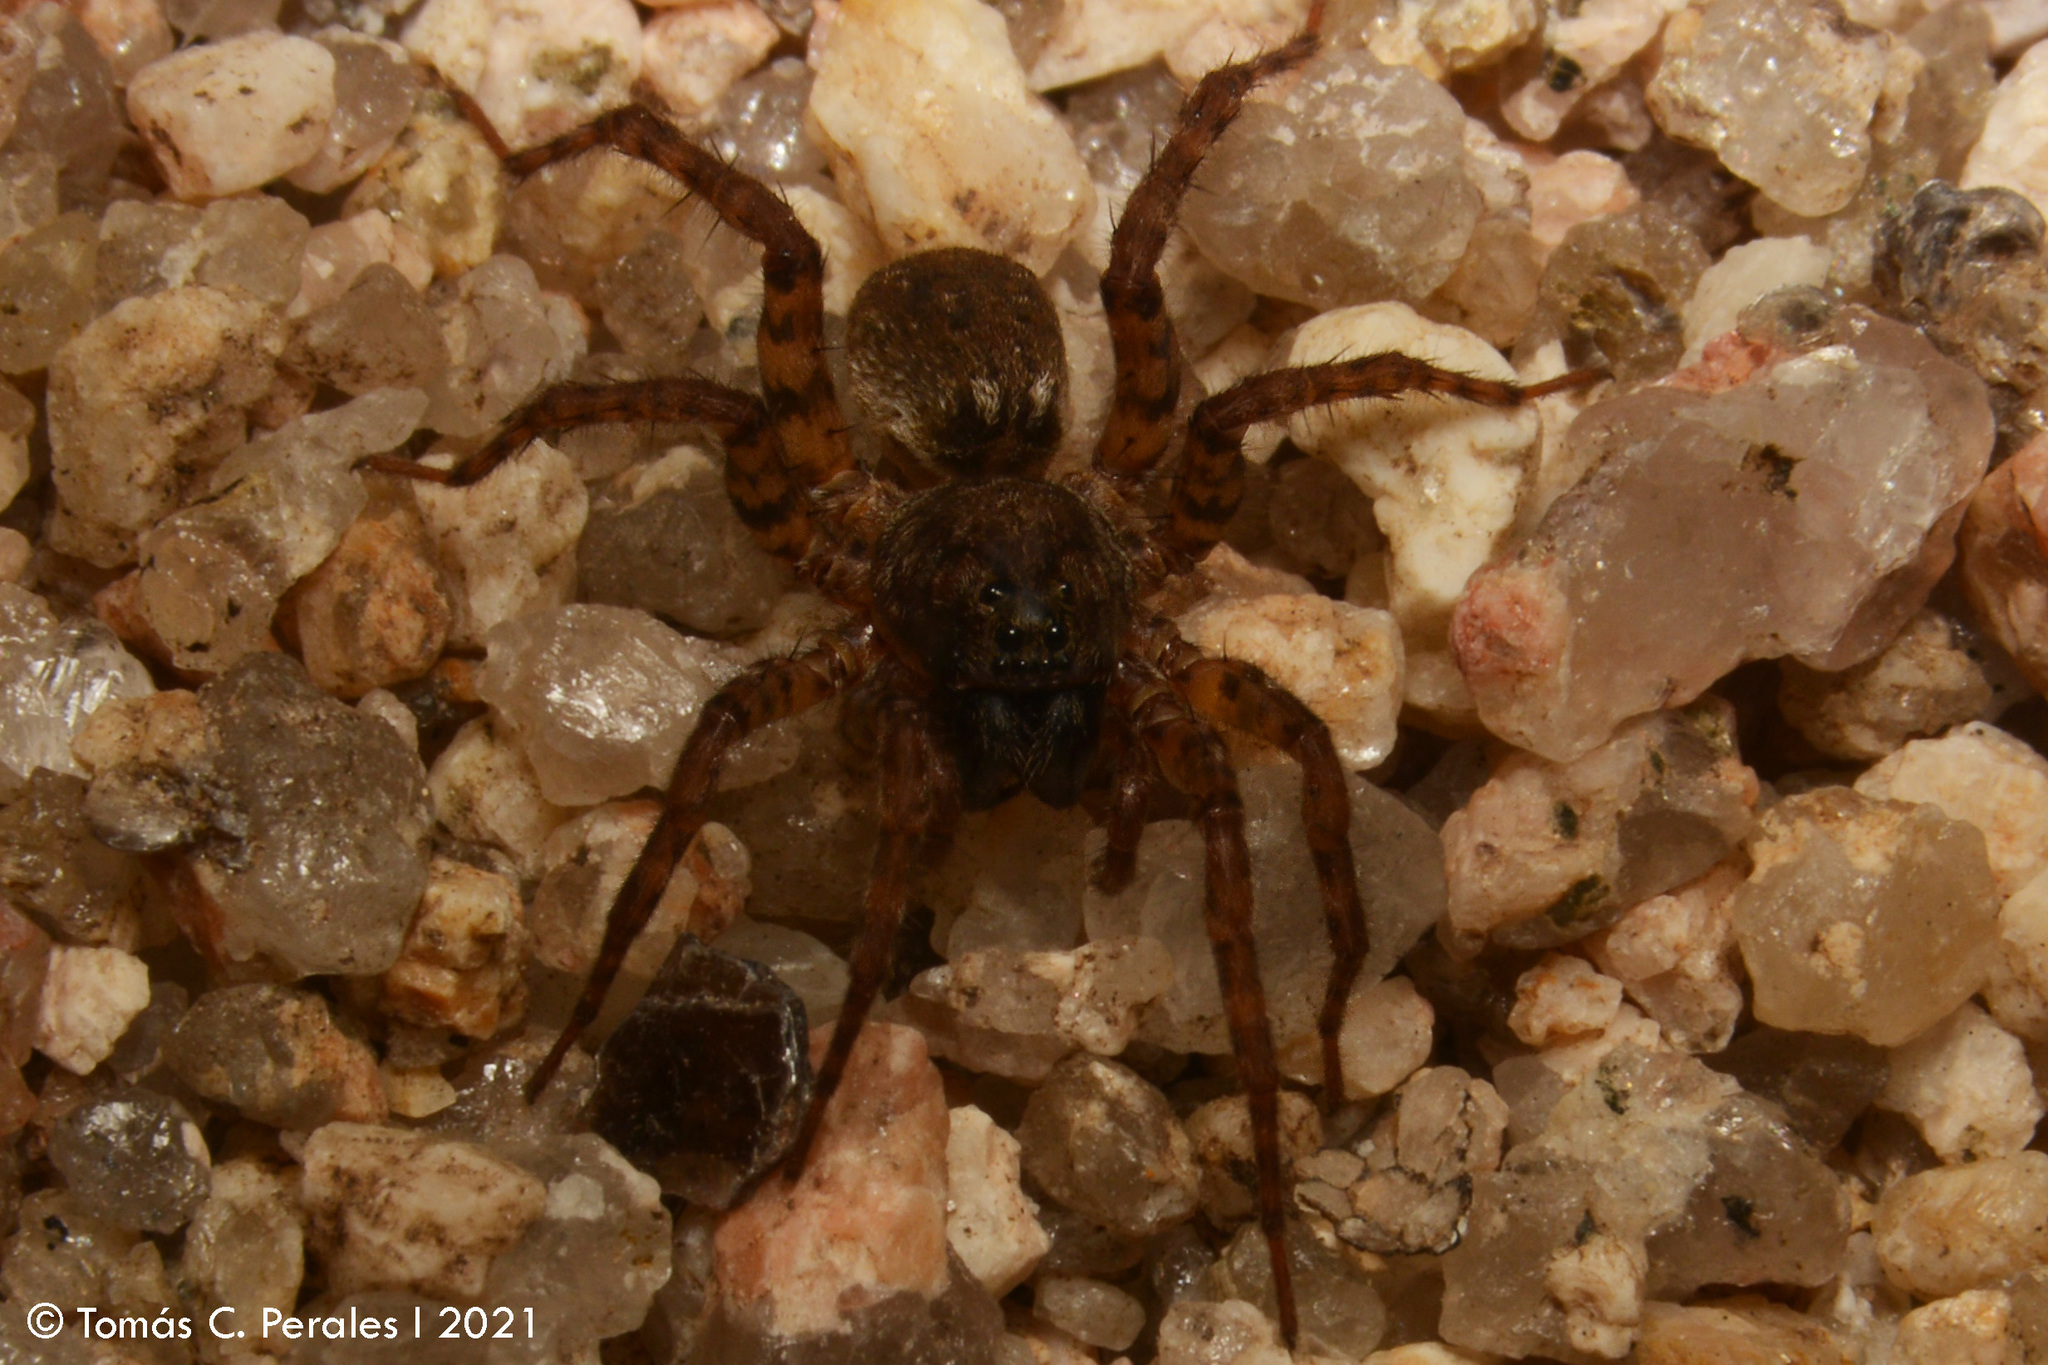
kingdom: Animalia
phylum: Arthropoda
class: Arachnida
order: Araneae
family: Lycosidae
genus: Paratrochosina
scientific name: Paratrochosina amica
